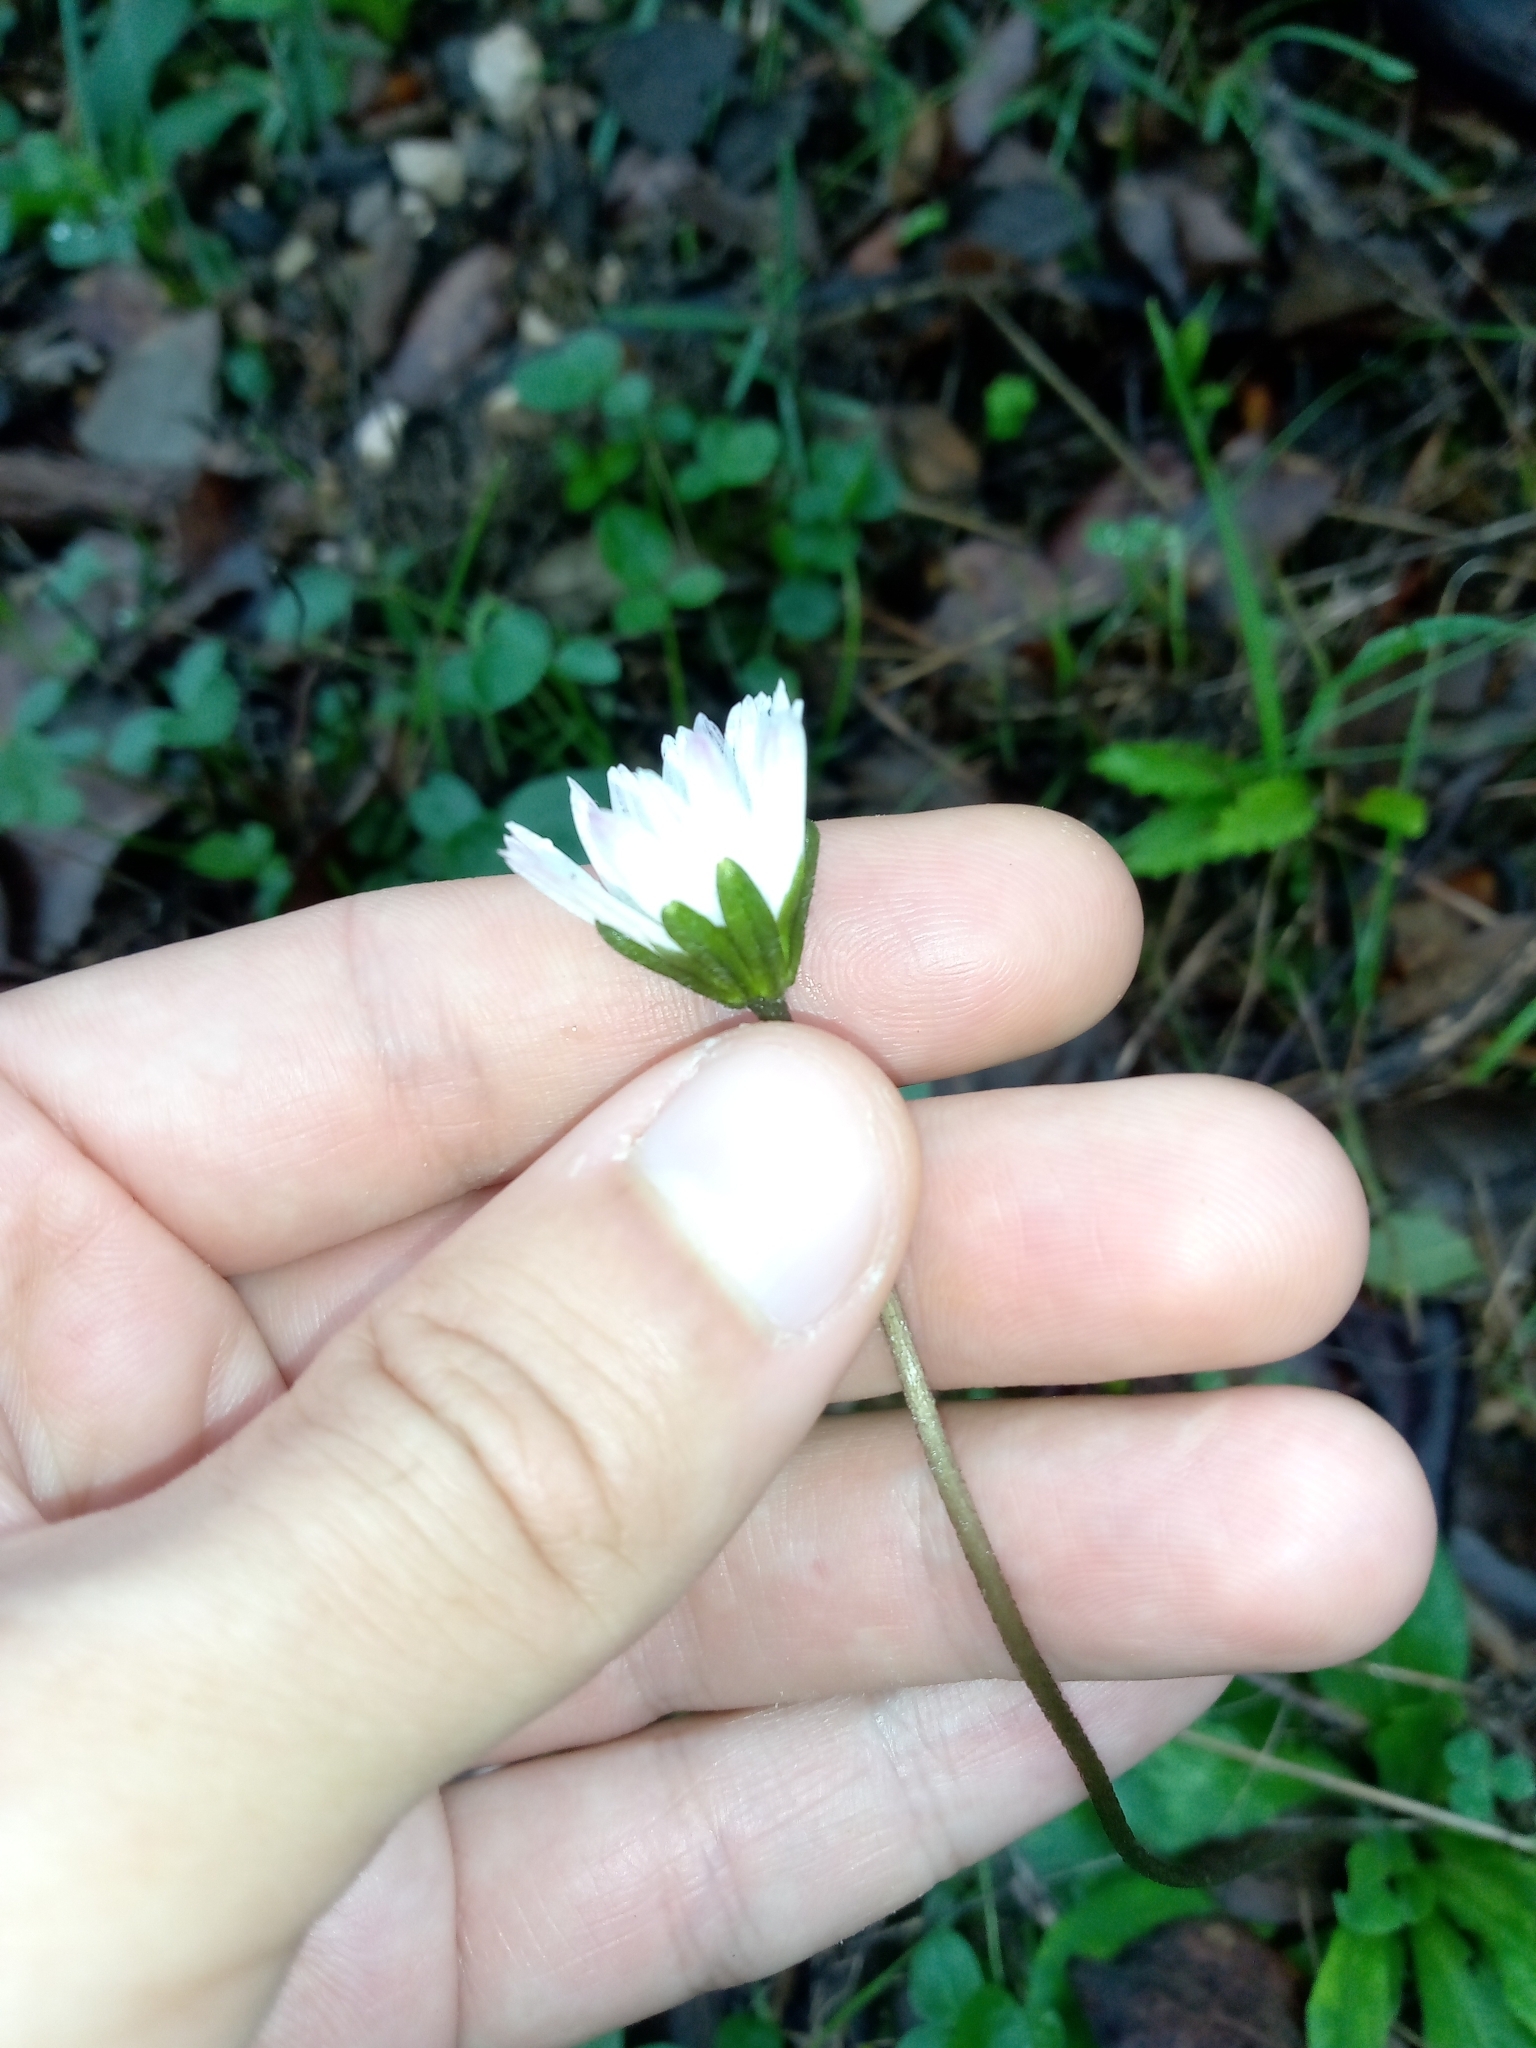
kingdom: Plantae
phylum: Tracheophyta
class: Magnoliopsida
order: Asterales
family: Asteraceae
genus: Bellis
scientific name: Bellis sylvestris
